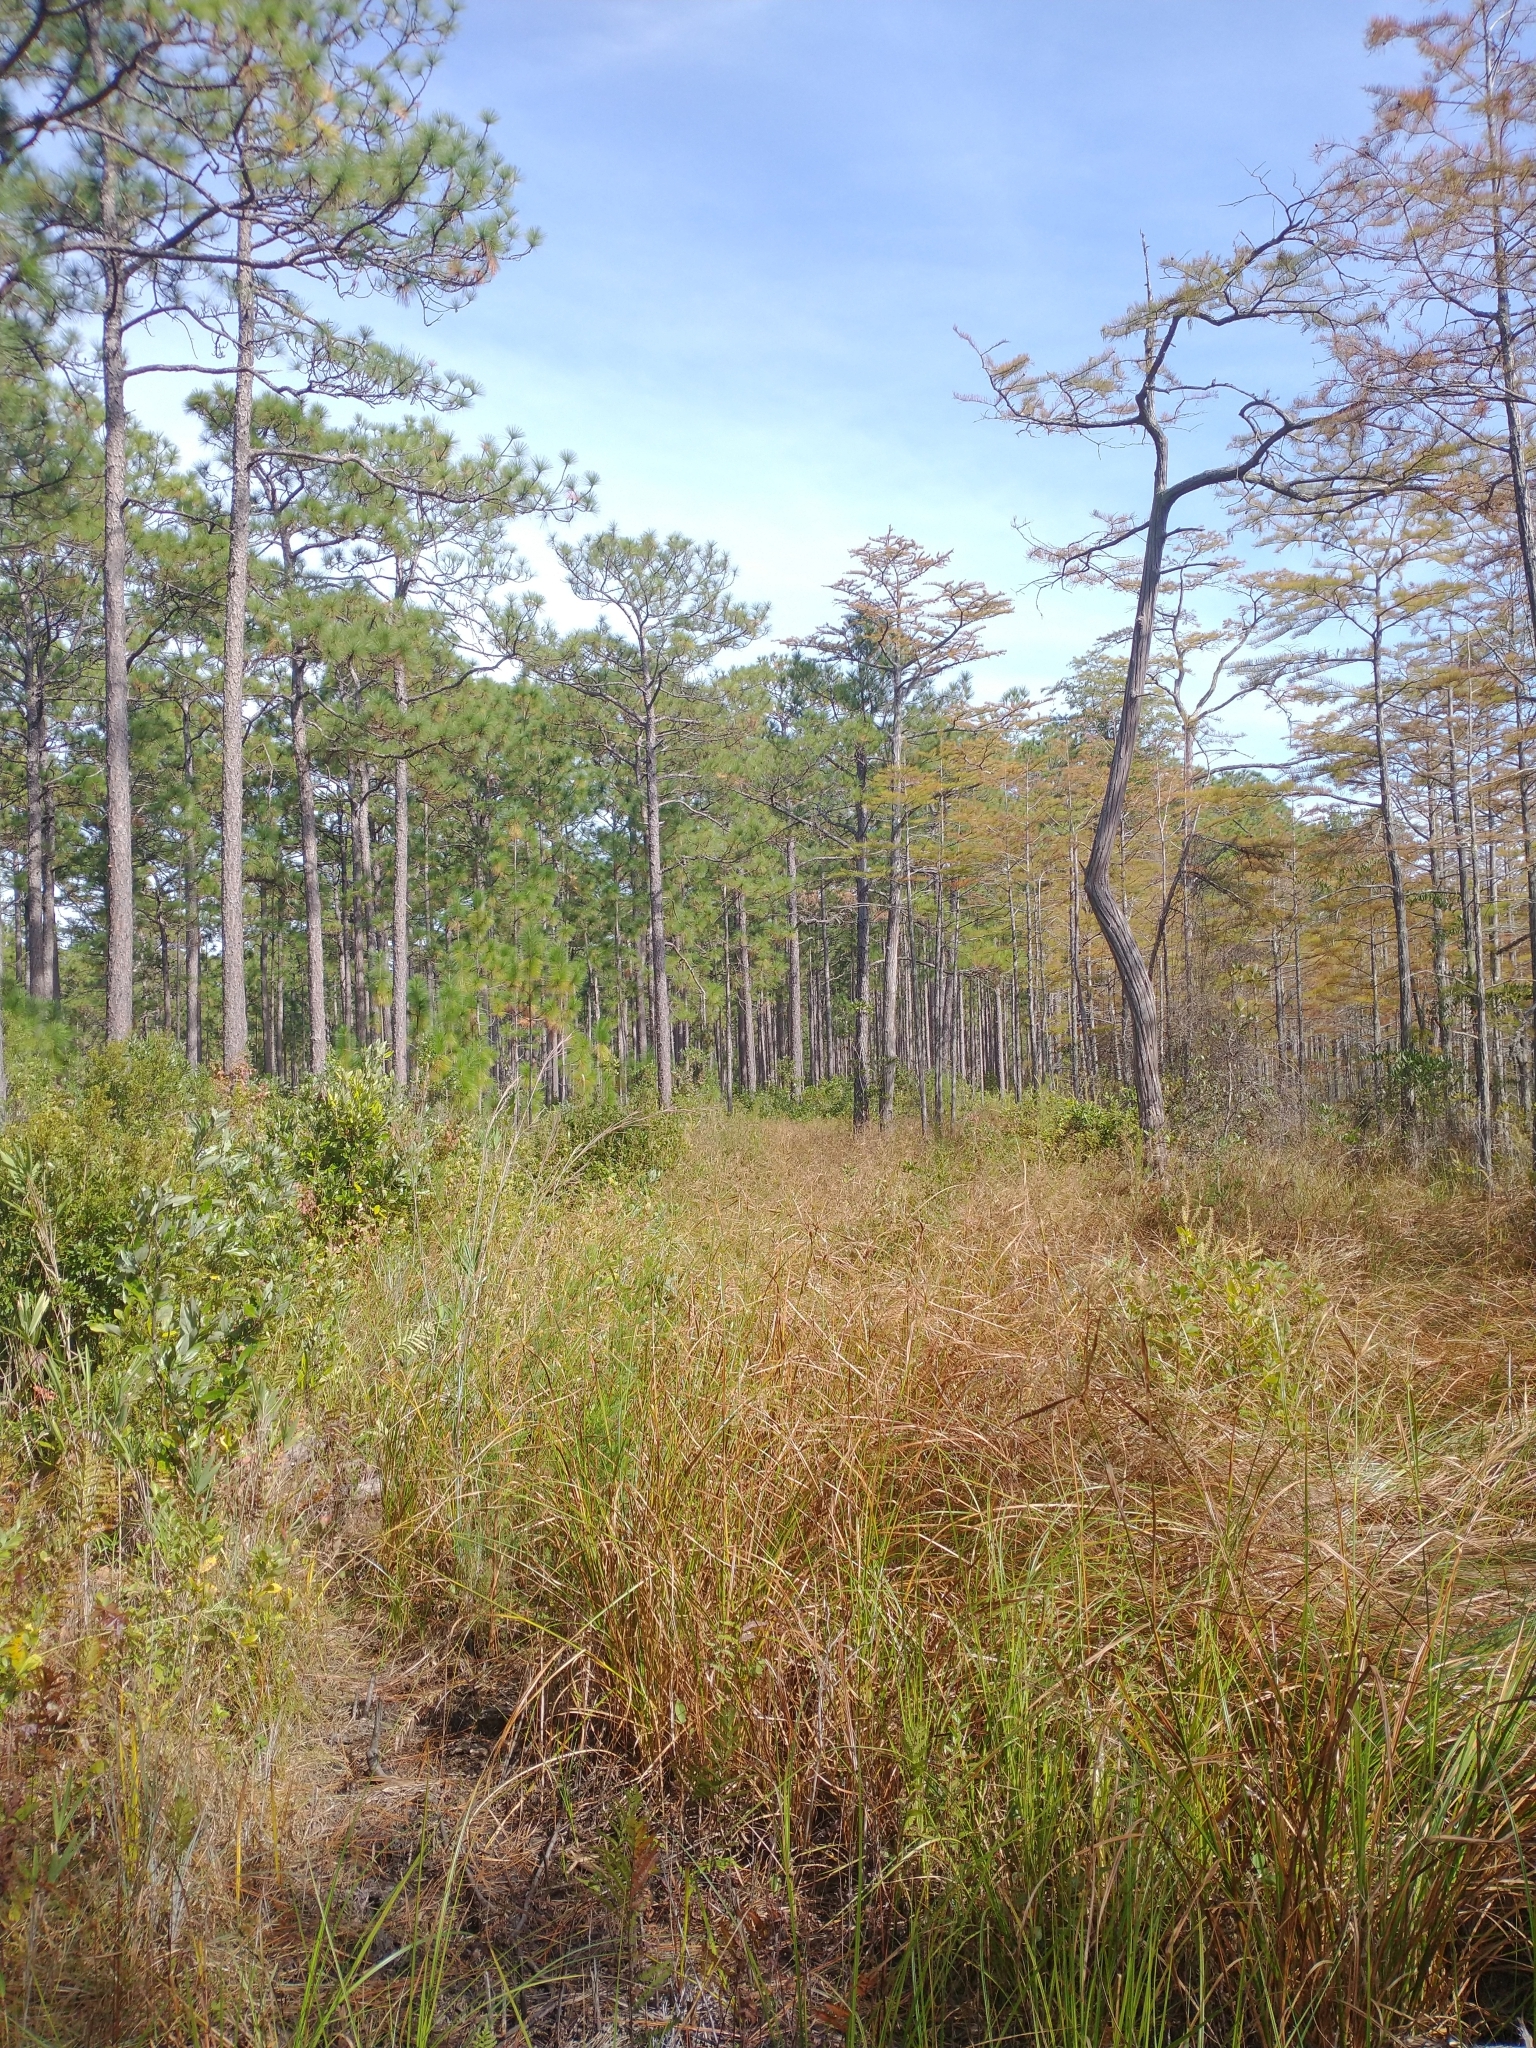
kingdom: Plantae
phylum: Tracheophyta
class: Pinopsida
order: Pinales
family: Pinaceae
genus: Pinus
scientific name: Pinus palustris
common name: Longleaf pine
